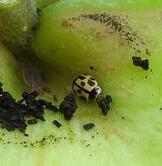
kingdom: Animalia
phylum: Arthropoda
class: Insecta
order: Coleoptera
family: Coccinellidae
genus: Propylaea
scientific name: Propylaea quatuordecimpunctata
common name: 14-spotted ladybird beetle
